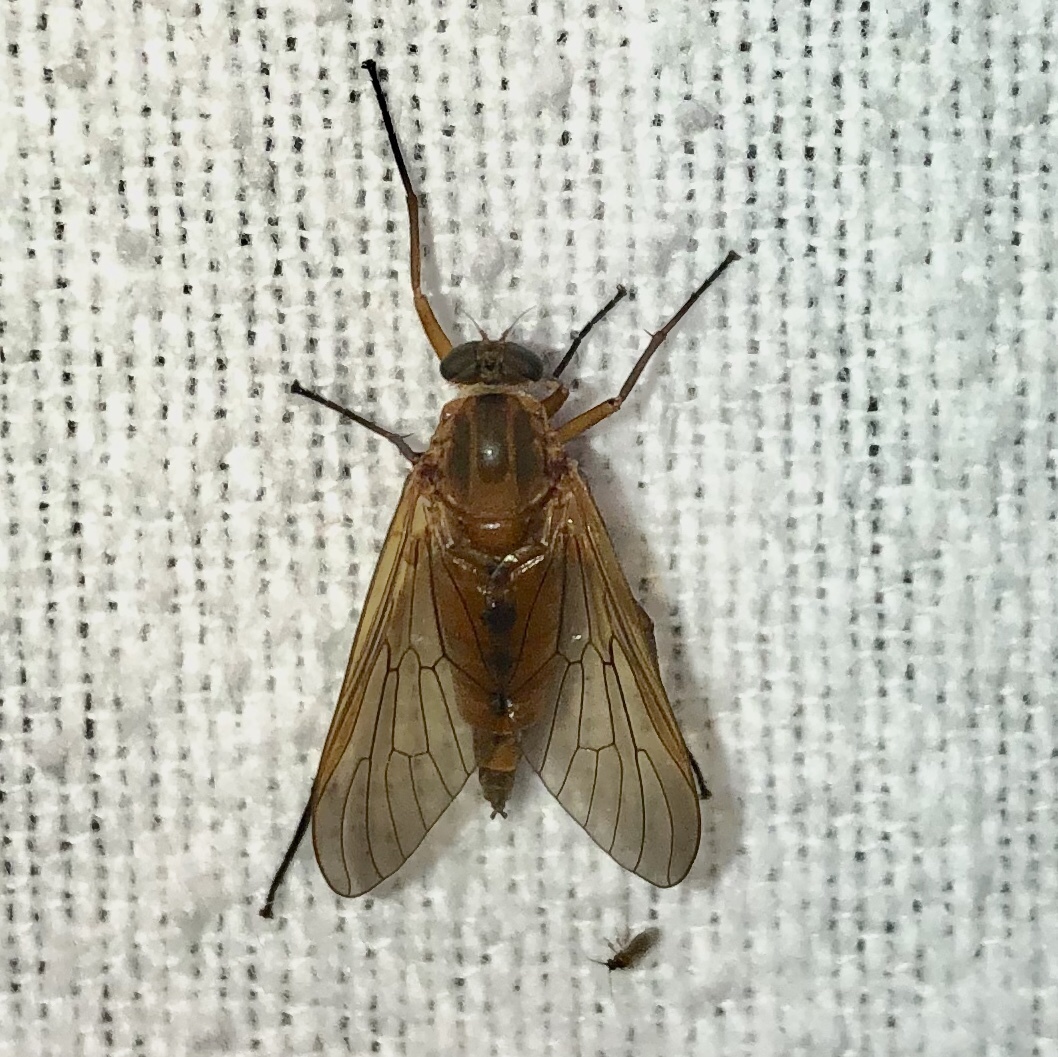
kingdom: Animalia
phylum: Arthropoda
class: Insecta
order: Diptera
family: Rhagionidae
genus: Rhagio
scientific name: Rhagio tringaria
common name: Marsh snipefly
